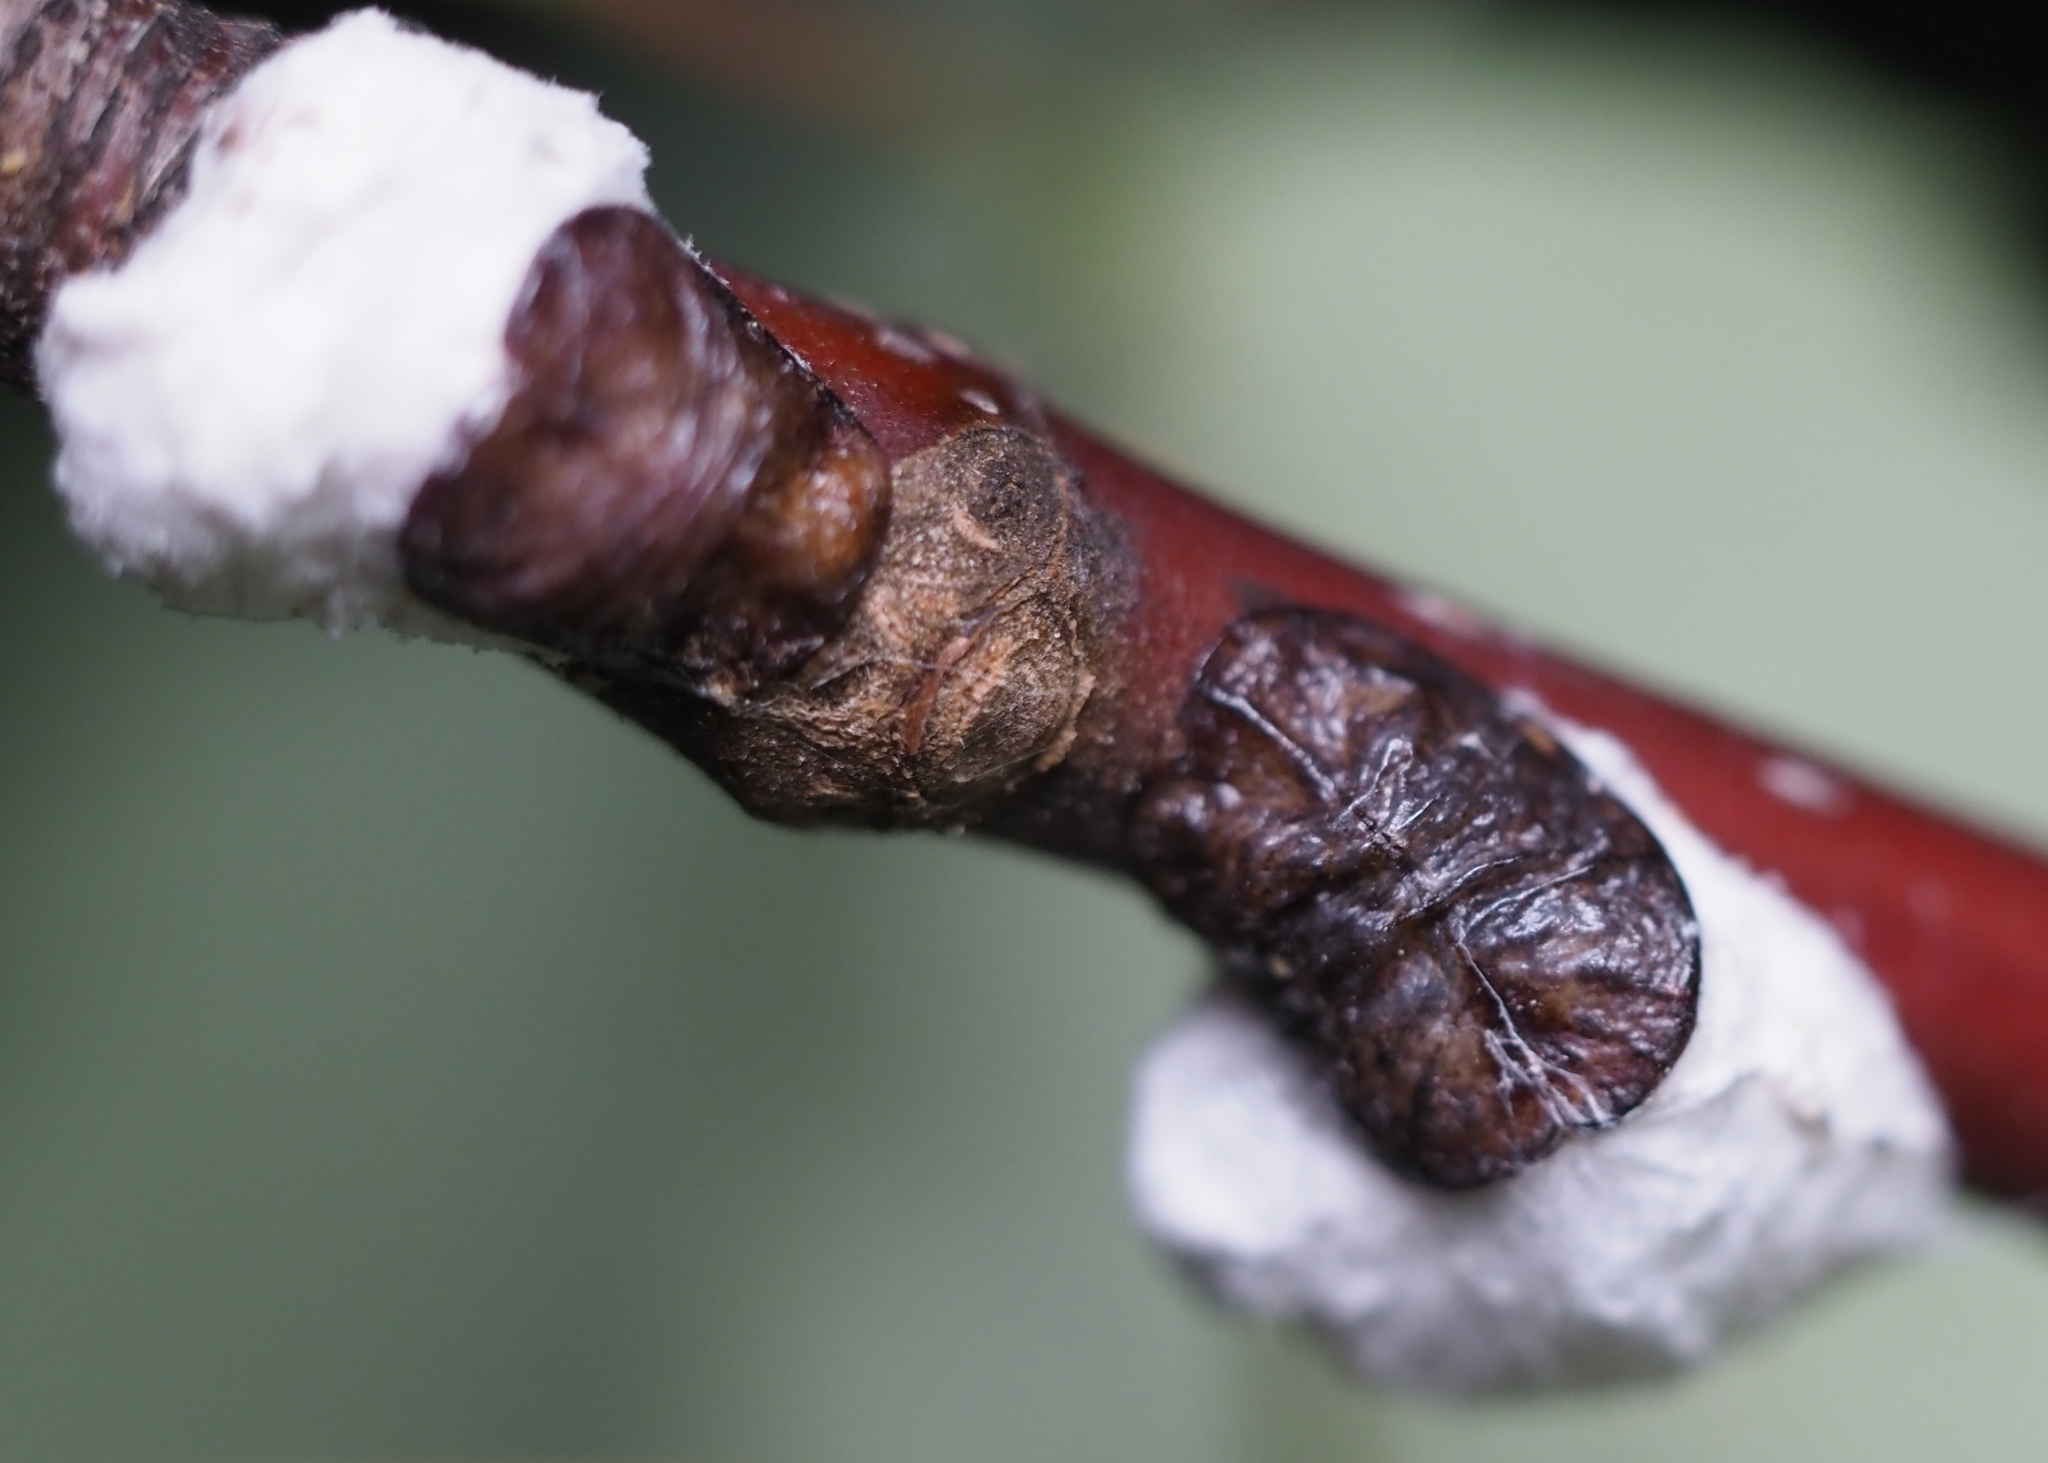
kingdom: Animalia
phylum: Arthropoda
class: Insecta
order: Hemiptera
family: Coccidae
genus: Pulvinaria
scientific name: Pulvinaria
